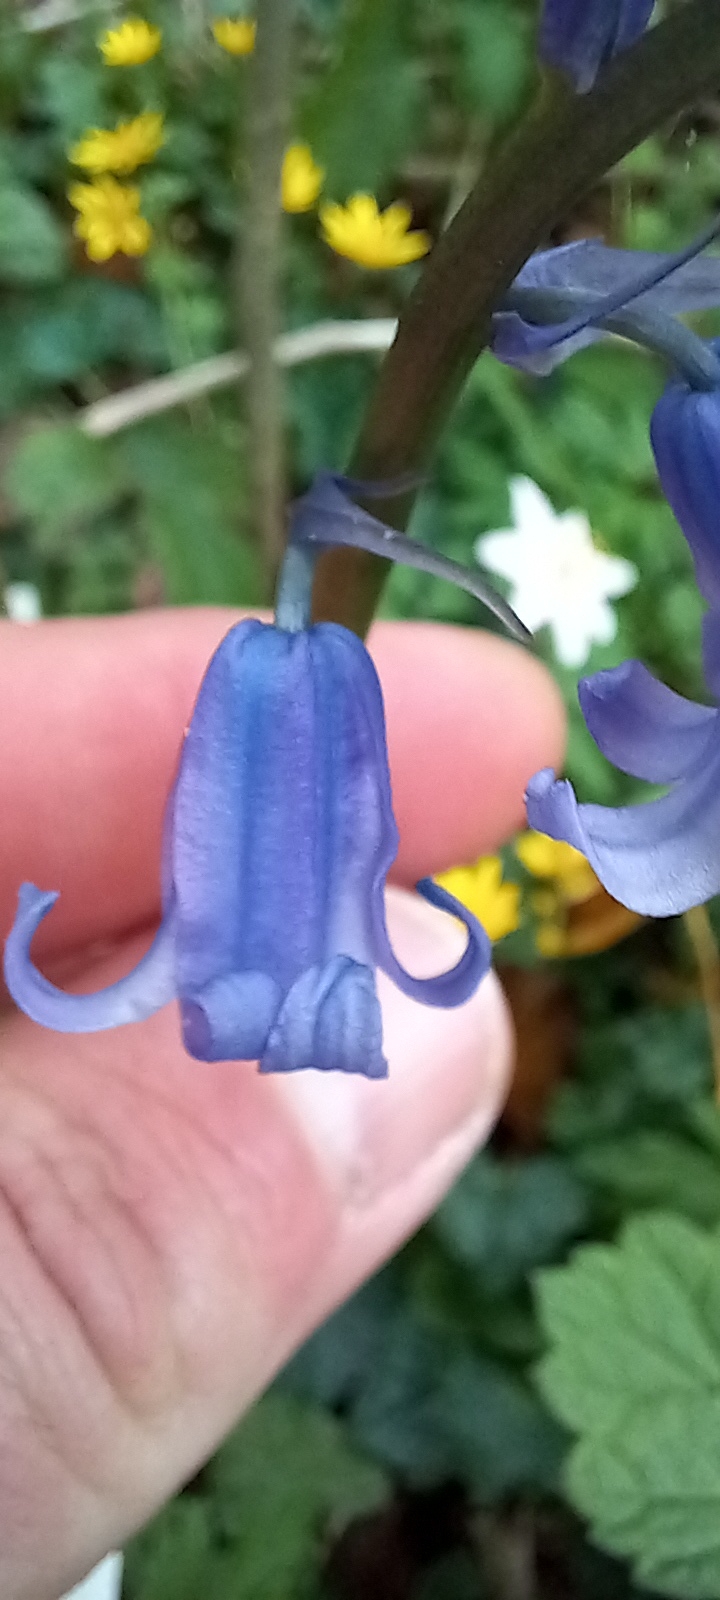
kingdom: Plantae
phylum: Tracheophyta
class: Liliopsida
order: Asparagales
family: Asparagaceae
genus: Hyacinthoides
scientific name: Hyacinthoides non-scripta
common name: Bluebell
